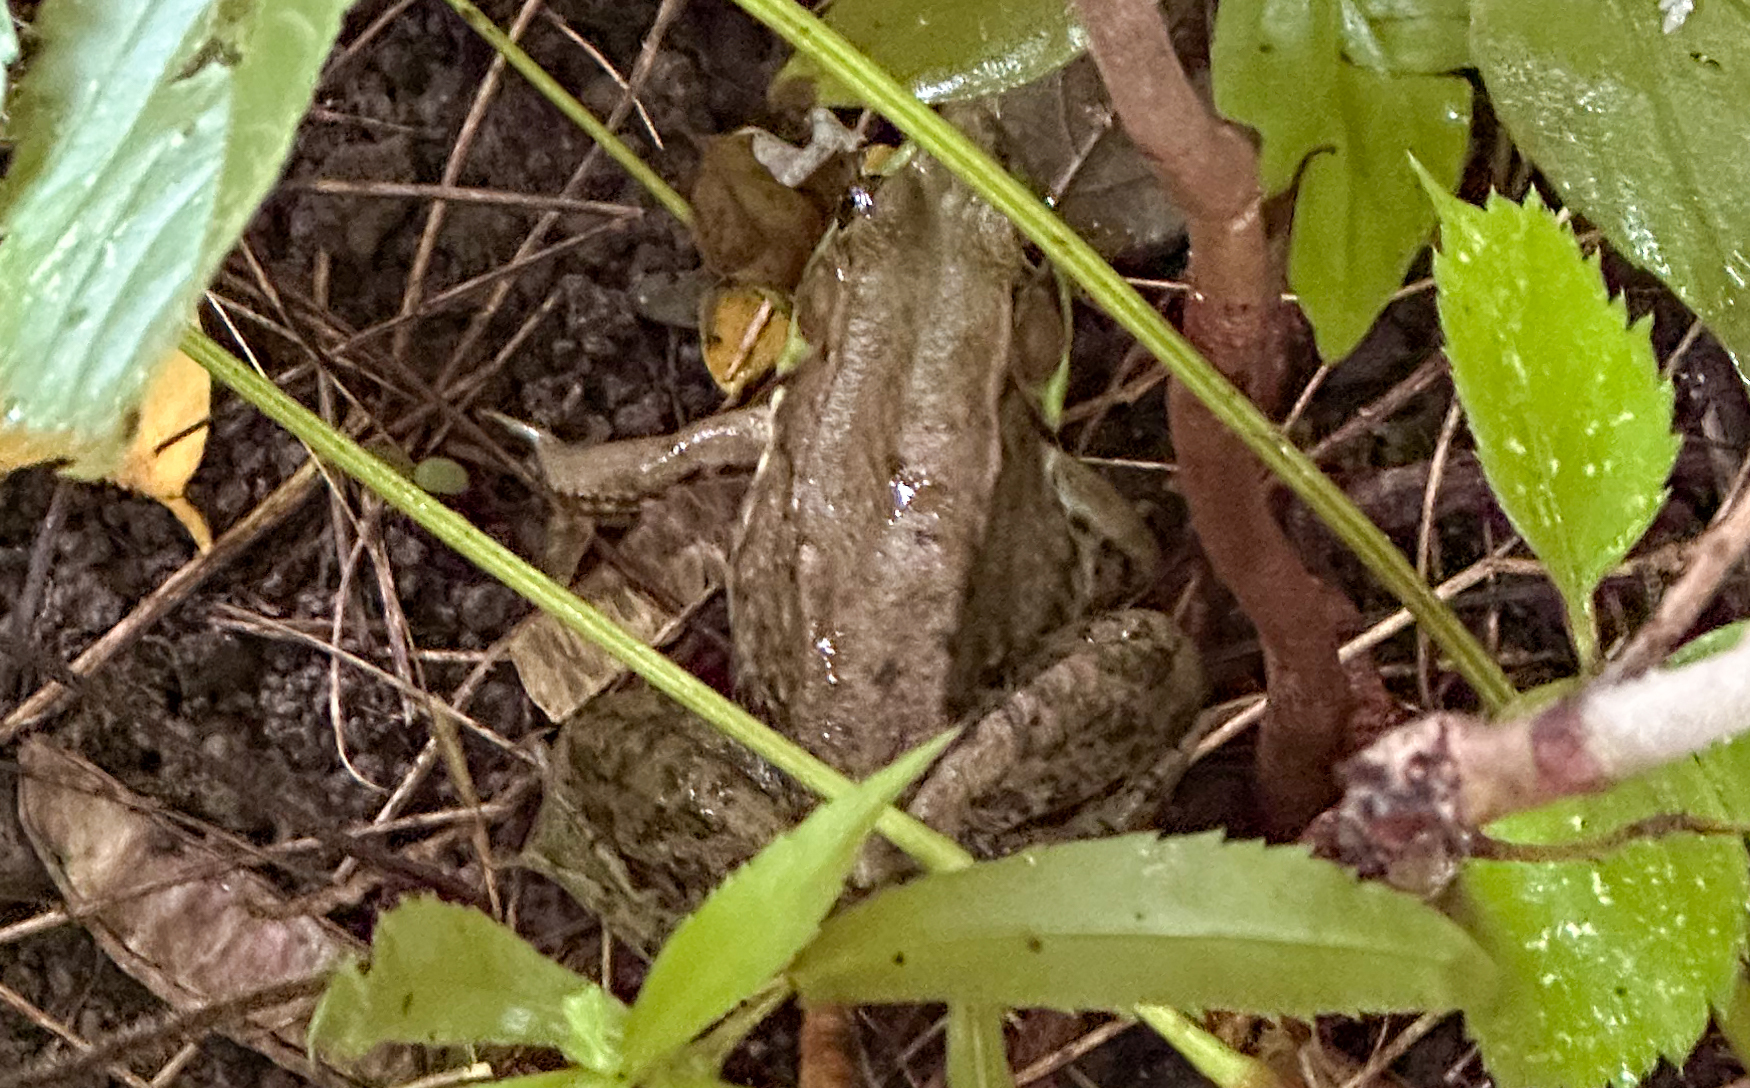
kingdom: Animalia
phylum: Chordata
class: Amphibia
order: Anura
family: Ranidae
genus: Lithobates
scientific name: Lithobates clamitans
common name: Green frog
